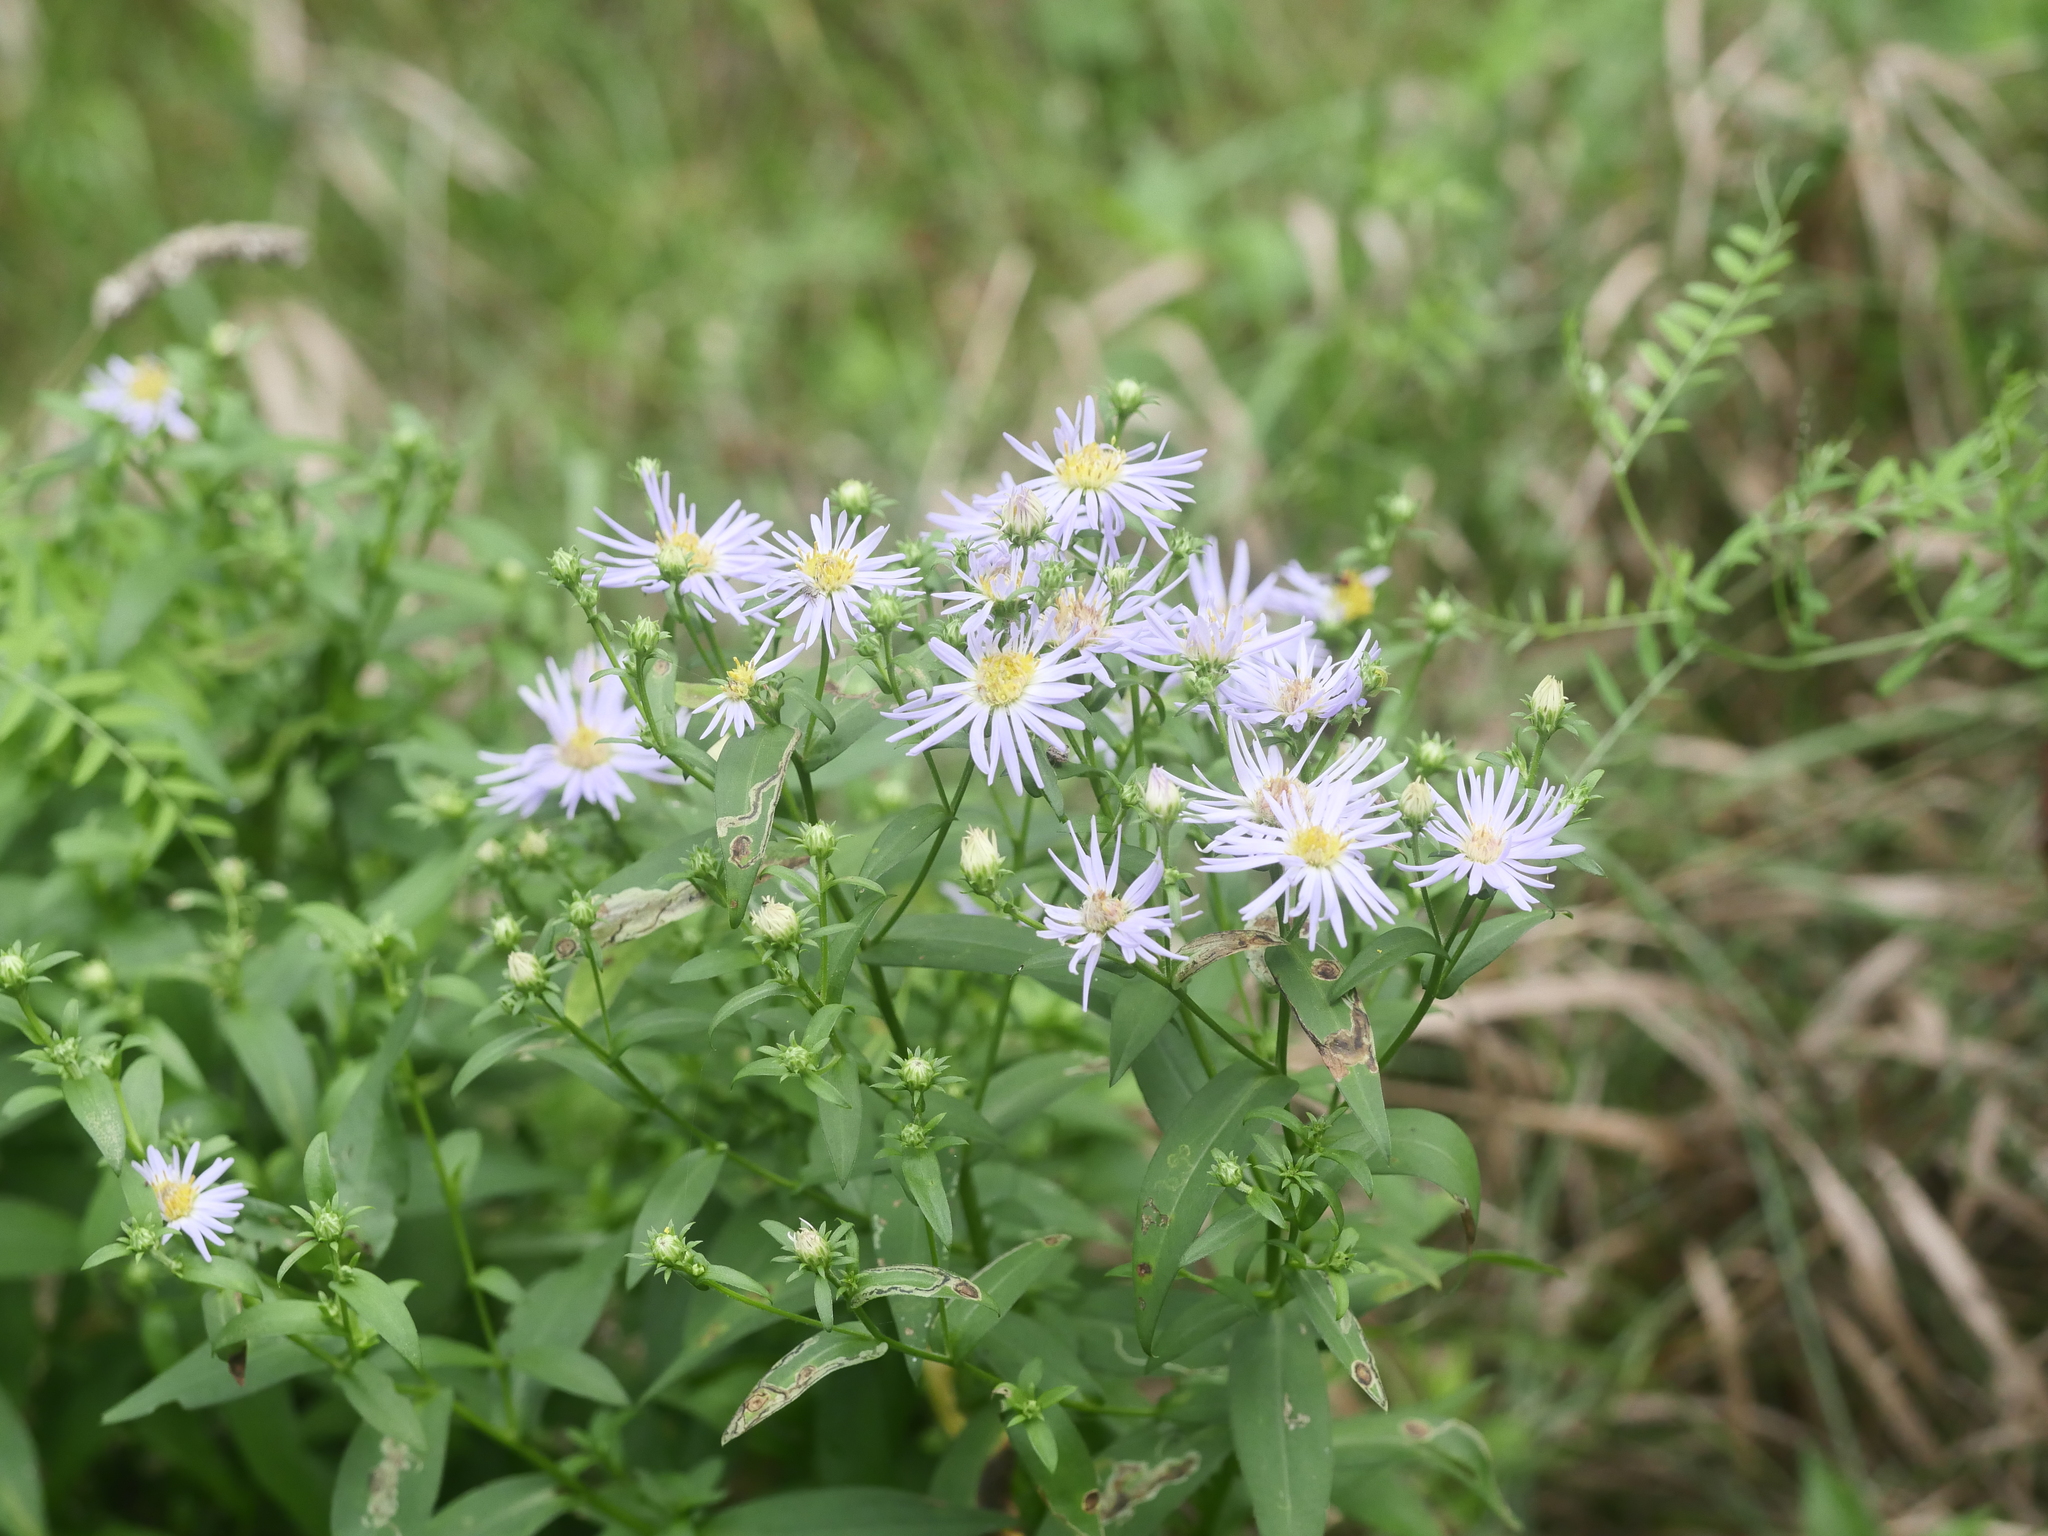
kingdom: Plantae
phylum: Tracheophyta
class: Magnoliopsida
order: Asterales
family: Asteraceae
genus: Symphyotrichum
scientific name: Symphyotrichum novi-belgii
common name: Michaelmas daisy
